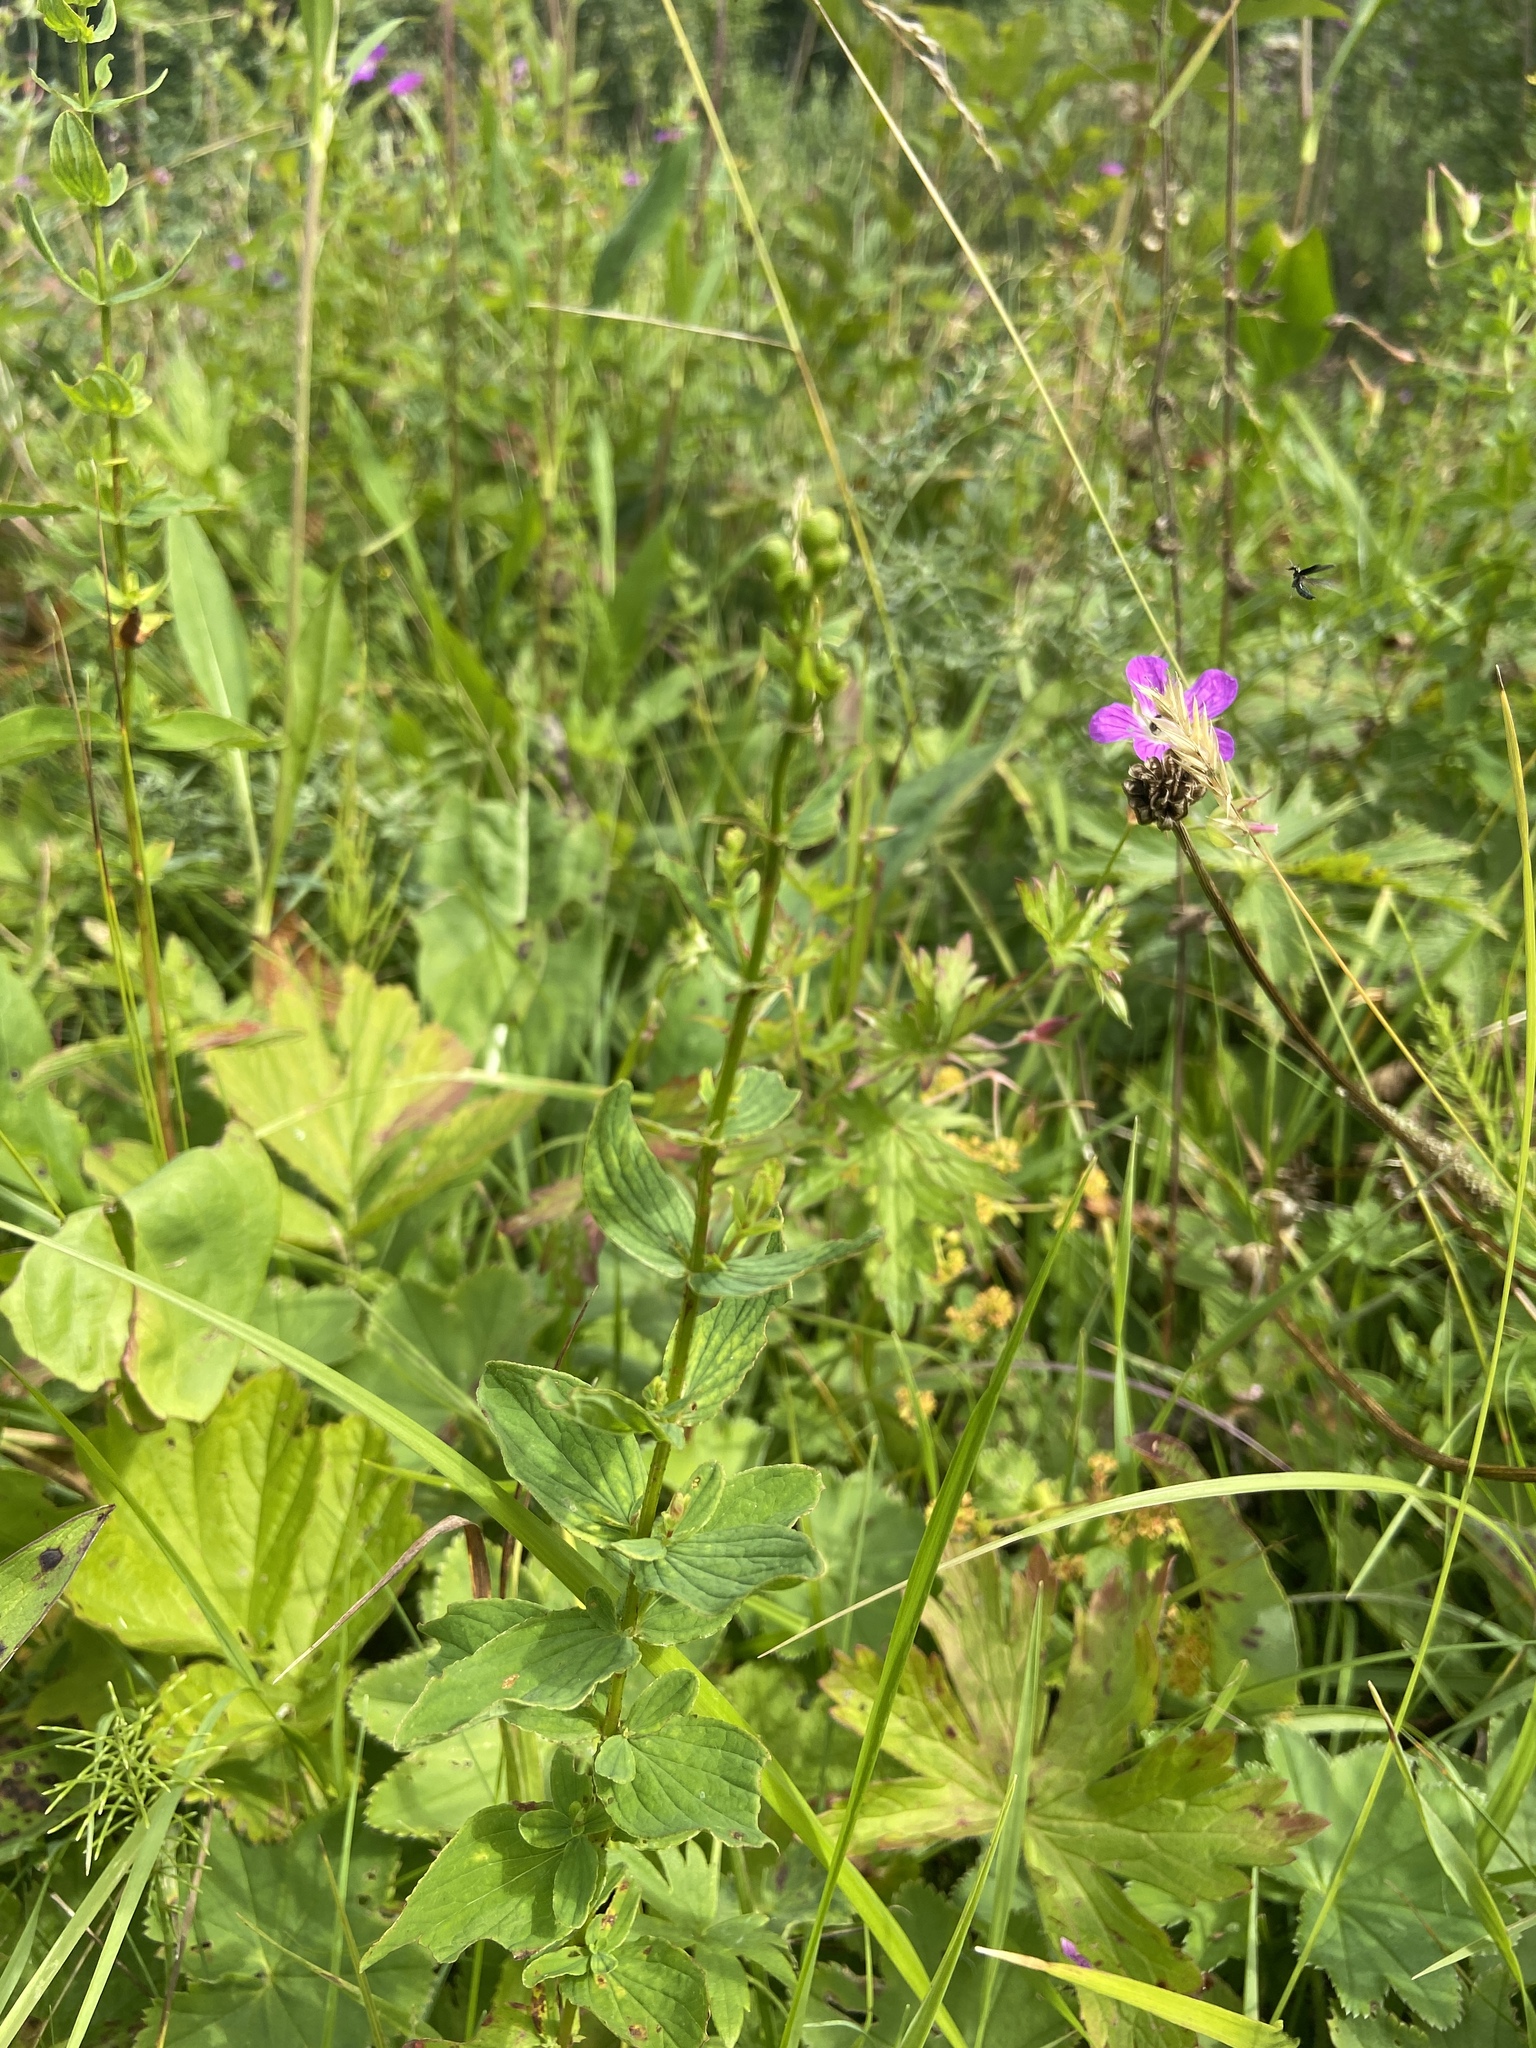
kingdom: Plantae
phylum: Tracheophyta
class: Magnoliopsida
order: Malpighiales
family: Hypericaceae
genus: Hypericum
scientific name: Hypericum maculatum
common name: Imperforate st. john's-wort
